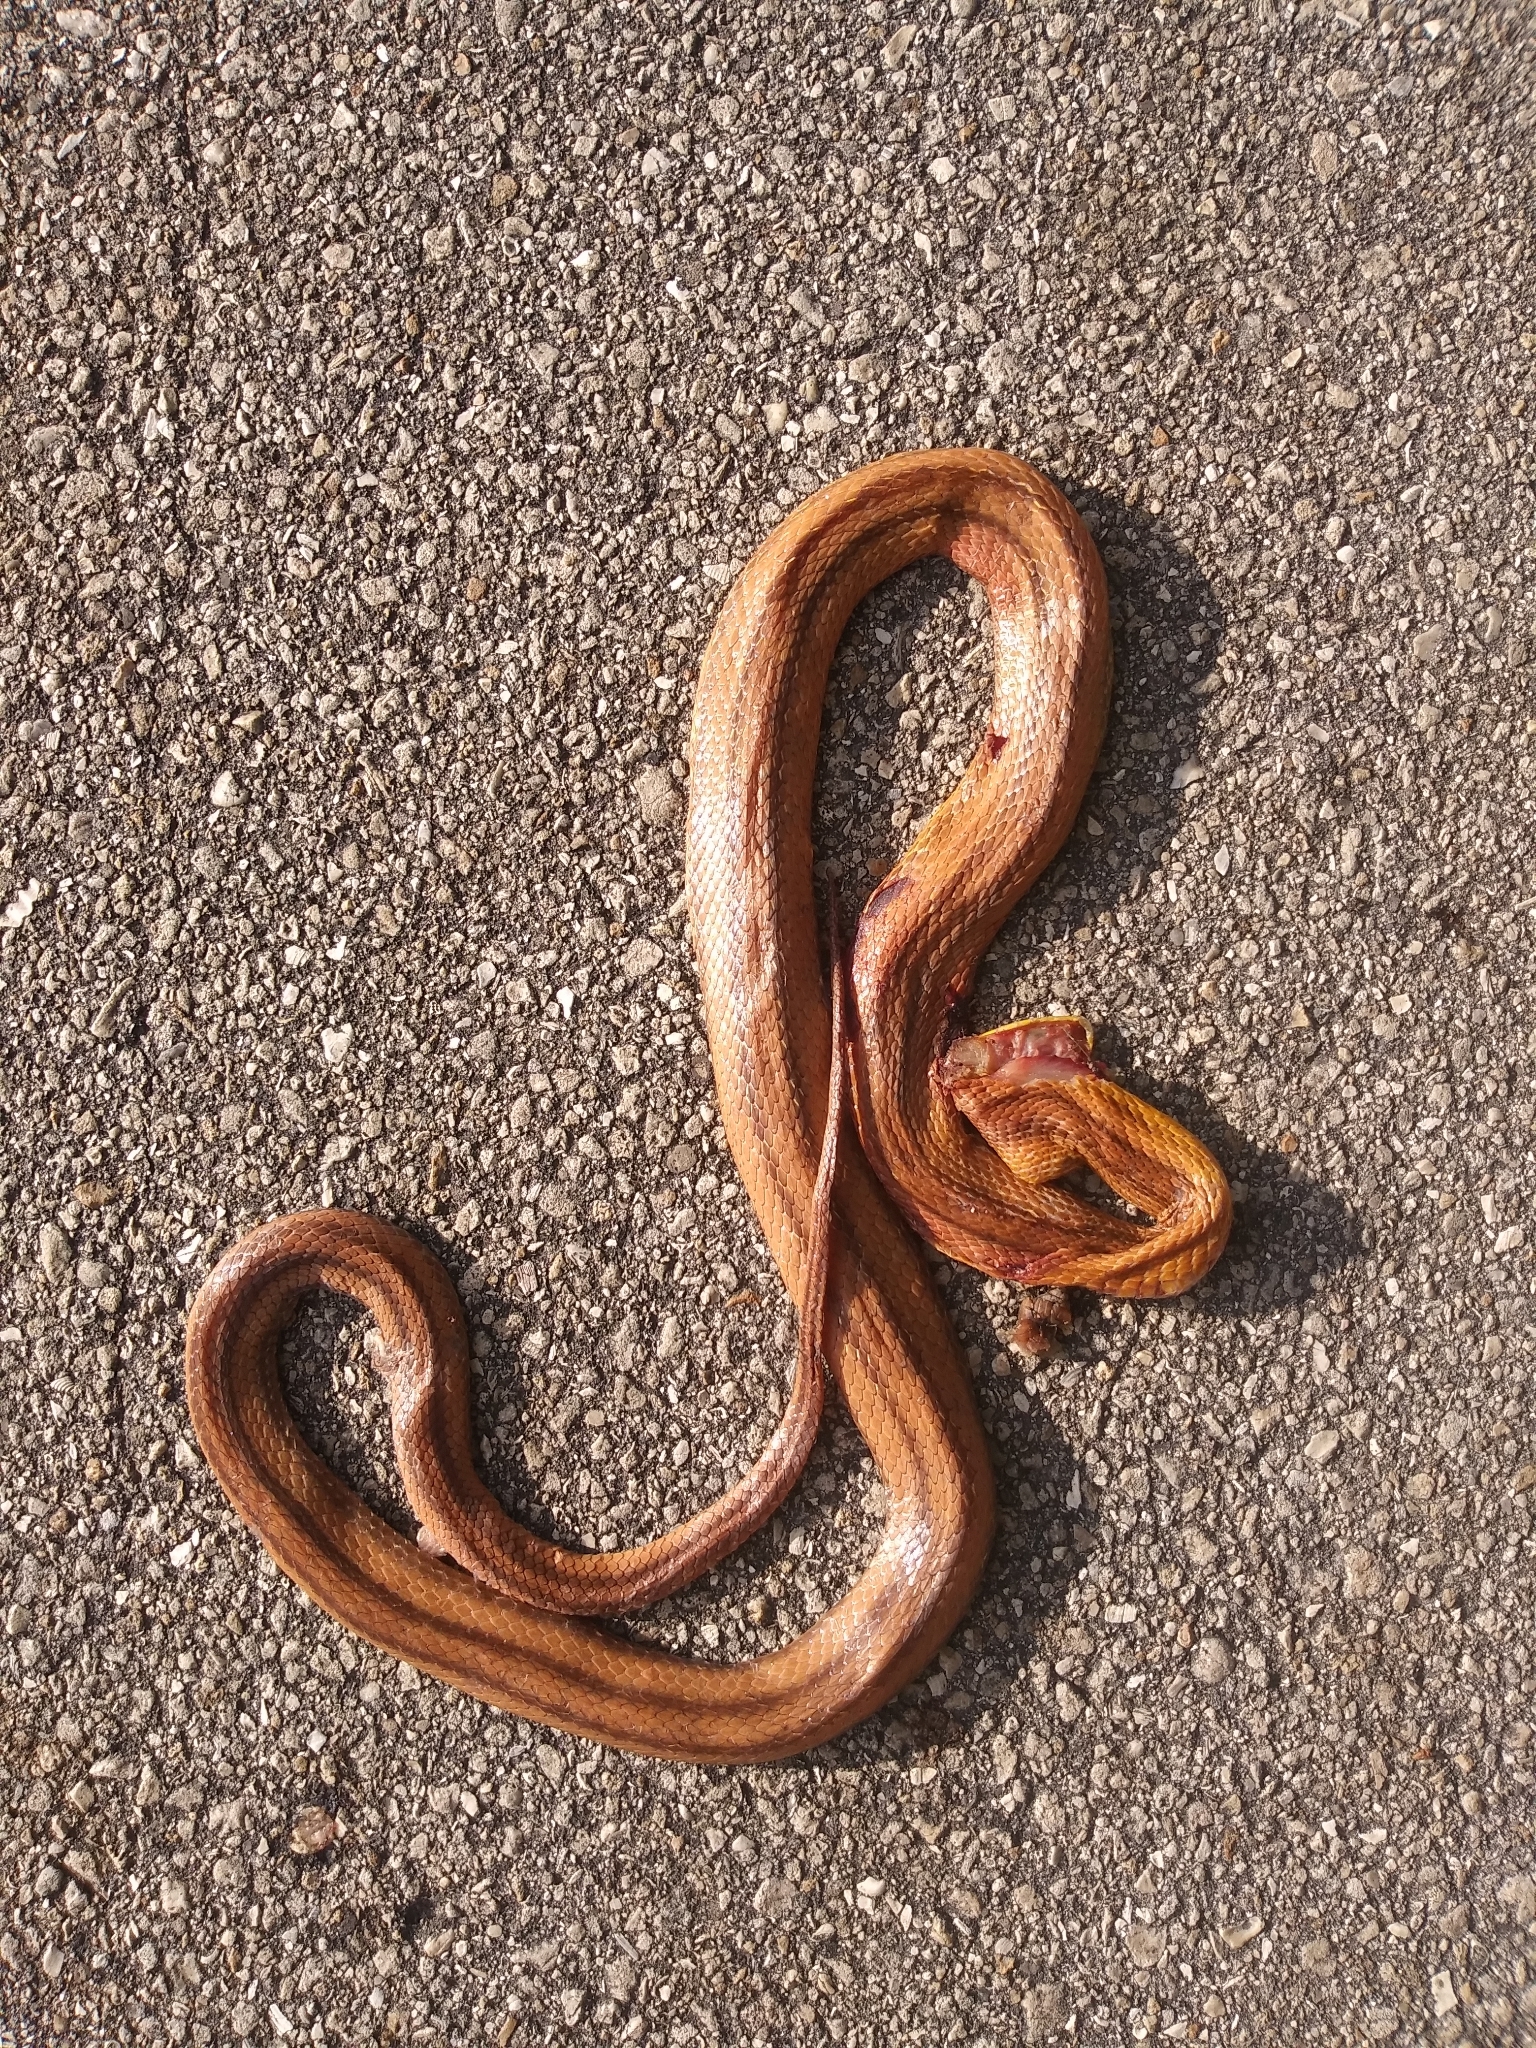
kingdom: Animalia
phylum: Chordata
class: Squamata
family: Colubridae
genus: Pantherophis
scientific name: Pantherophis alleghaniensis
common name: Eastern rat snake
